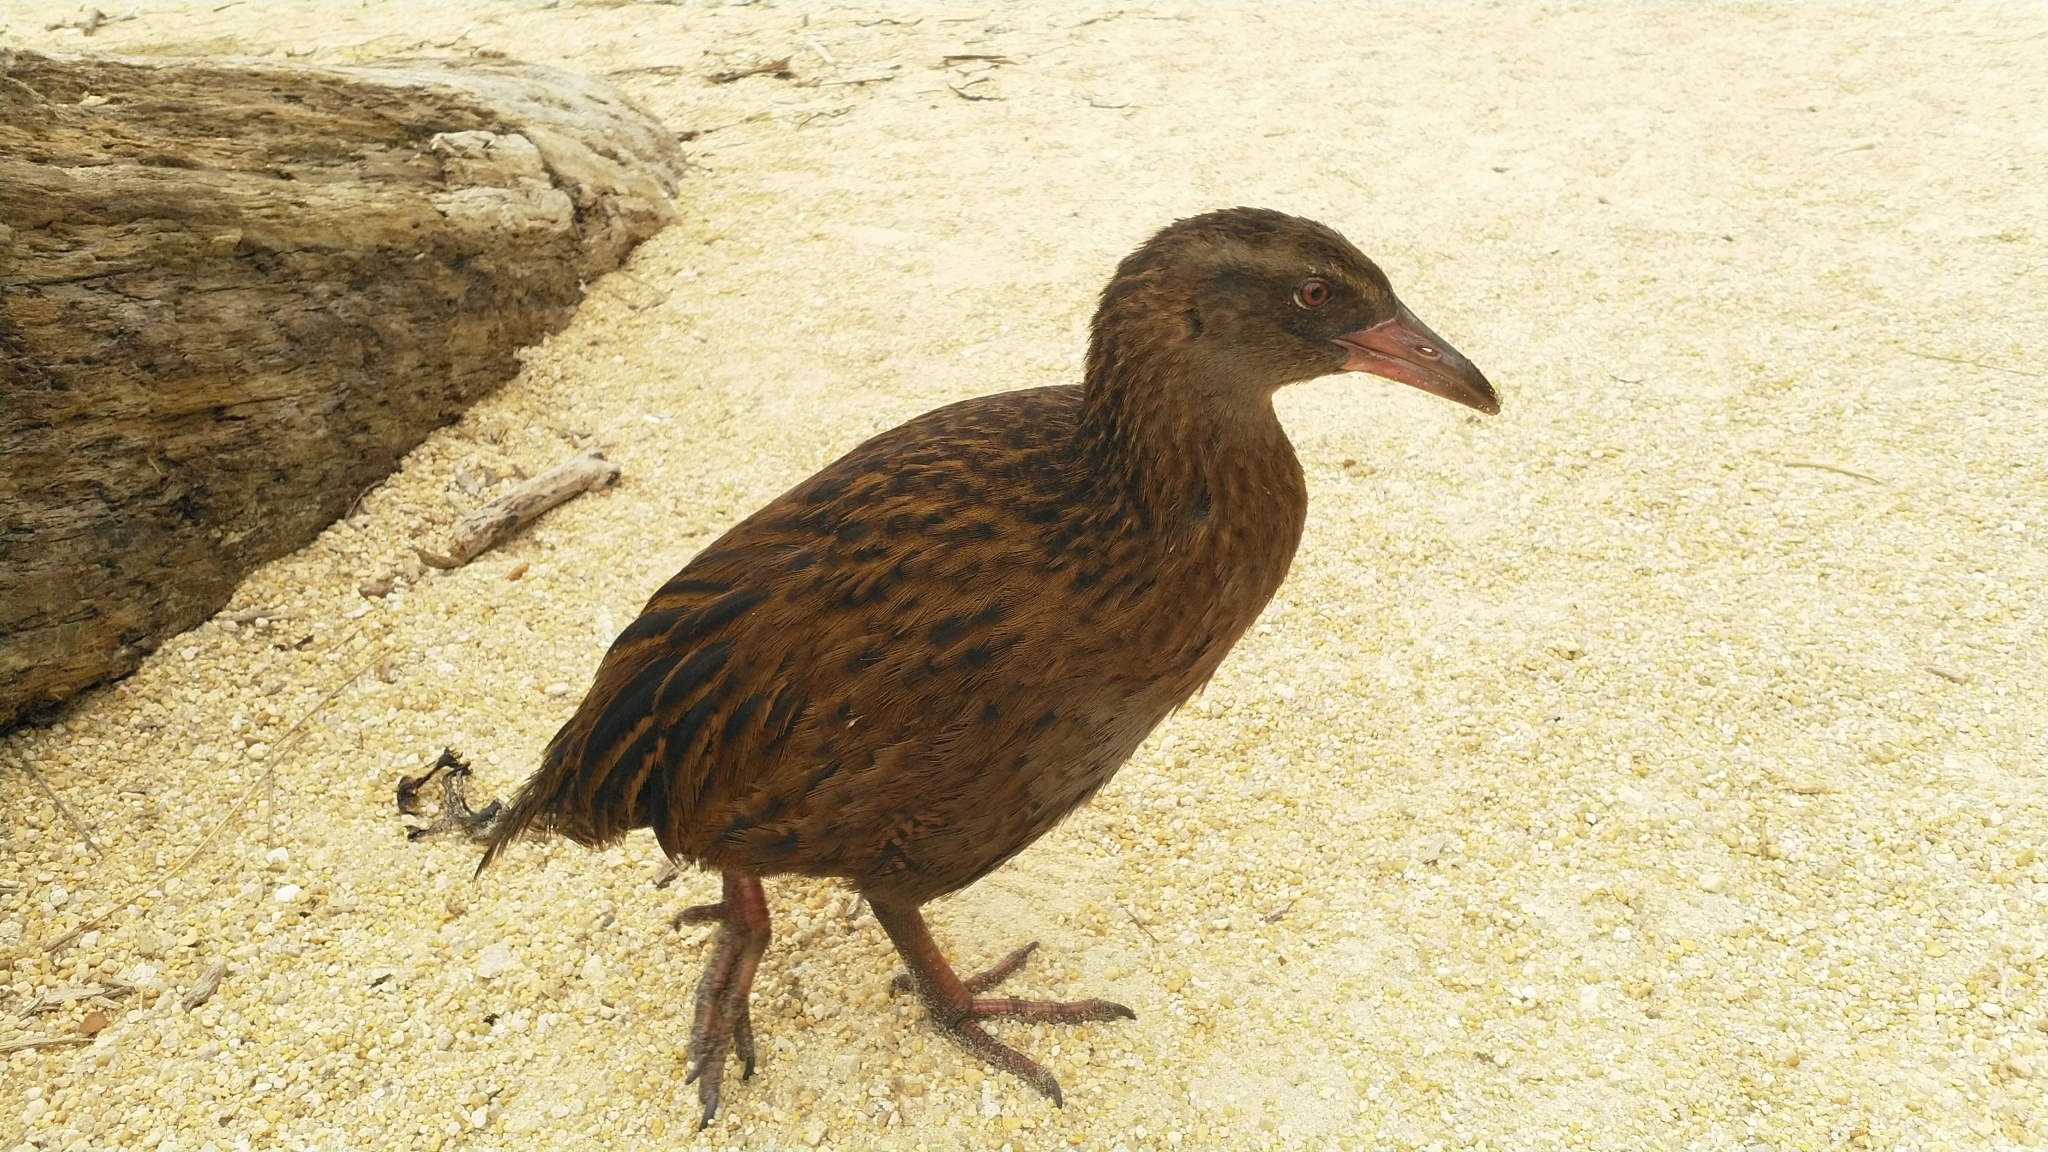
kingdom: Animalia
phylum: Chordata
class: Aves
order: Gruiformes
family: Rallidae
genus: Gallirallus
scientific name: Gallirallus australis
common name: Weka
